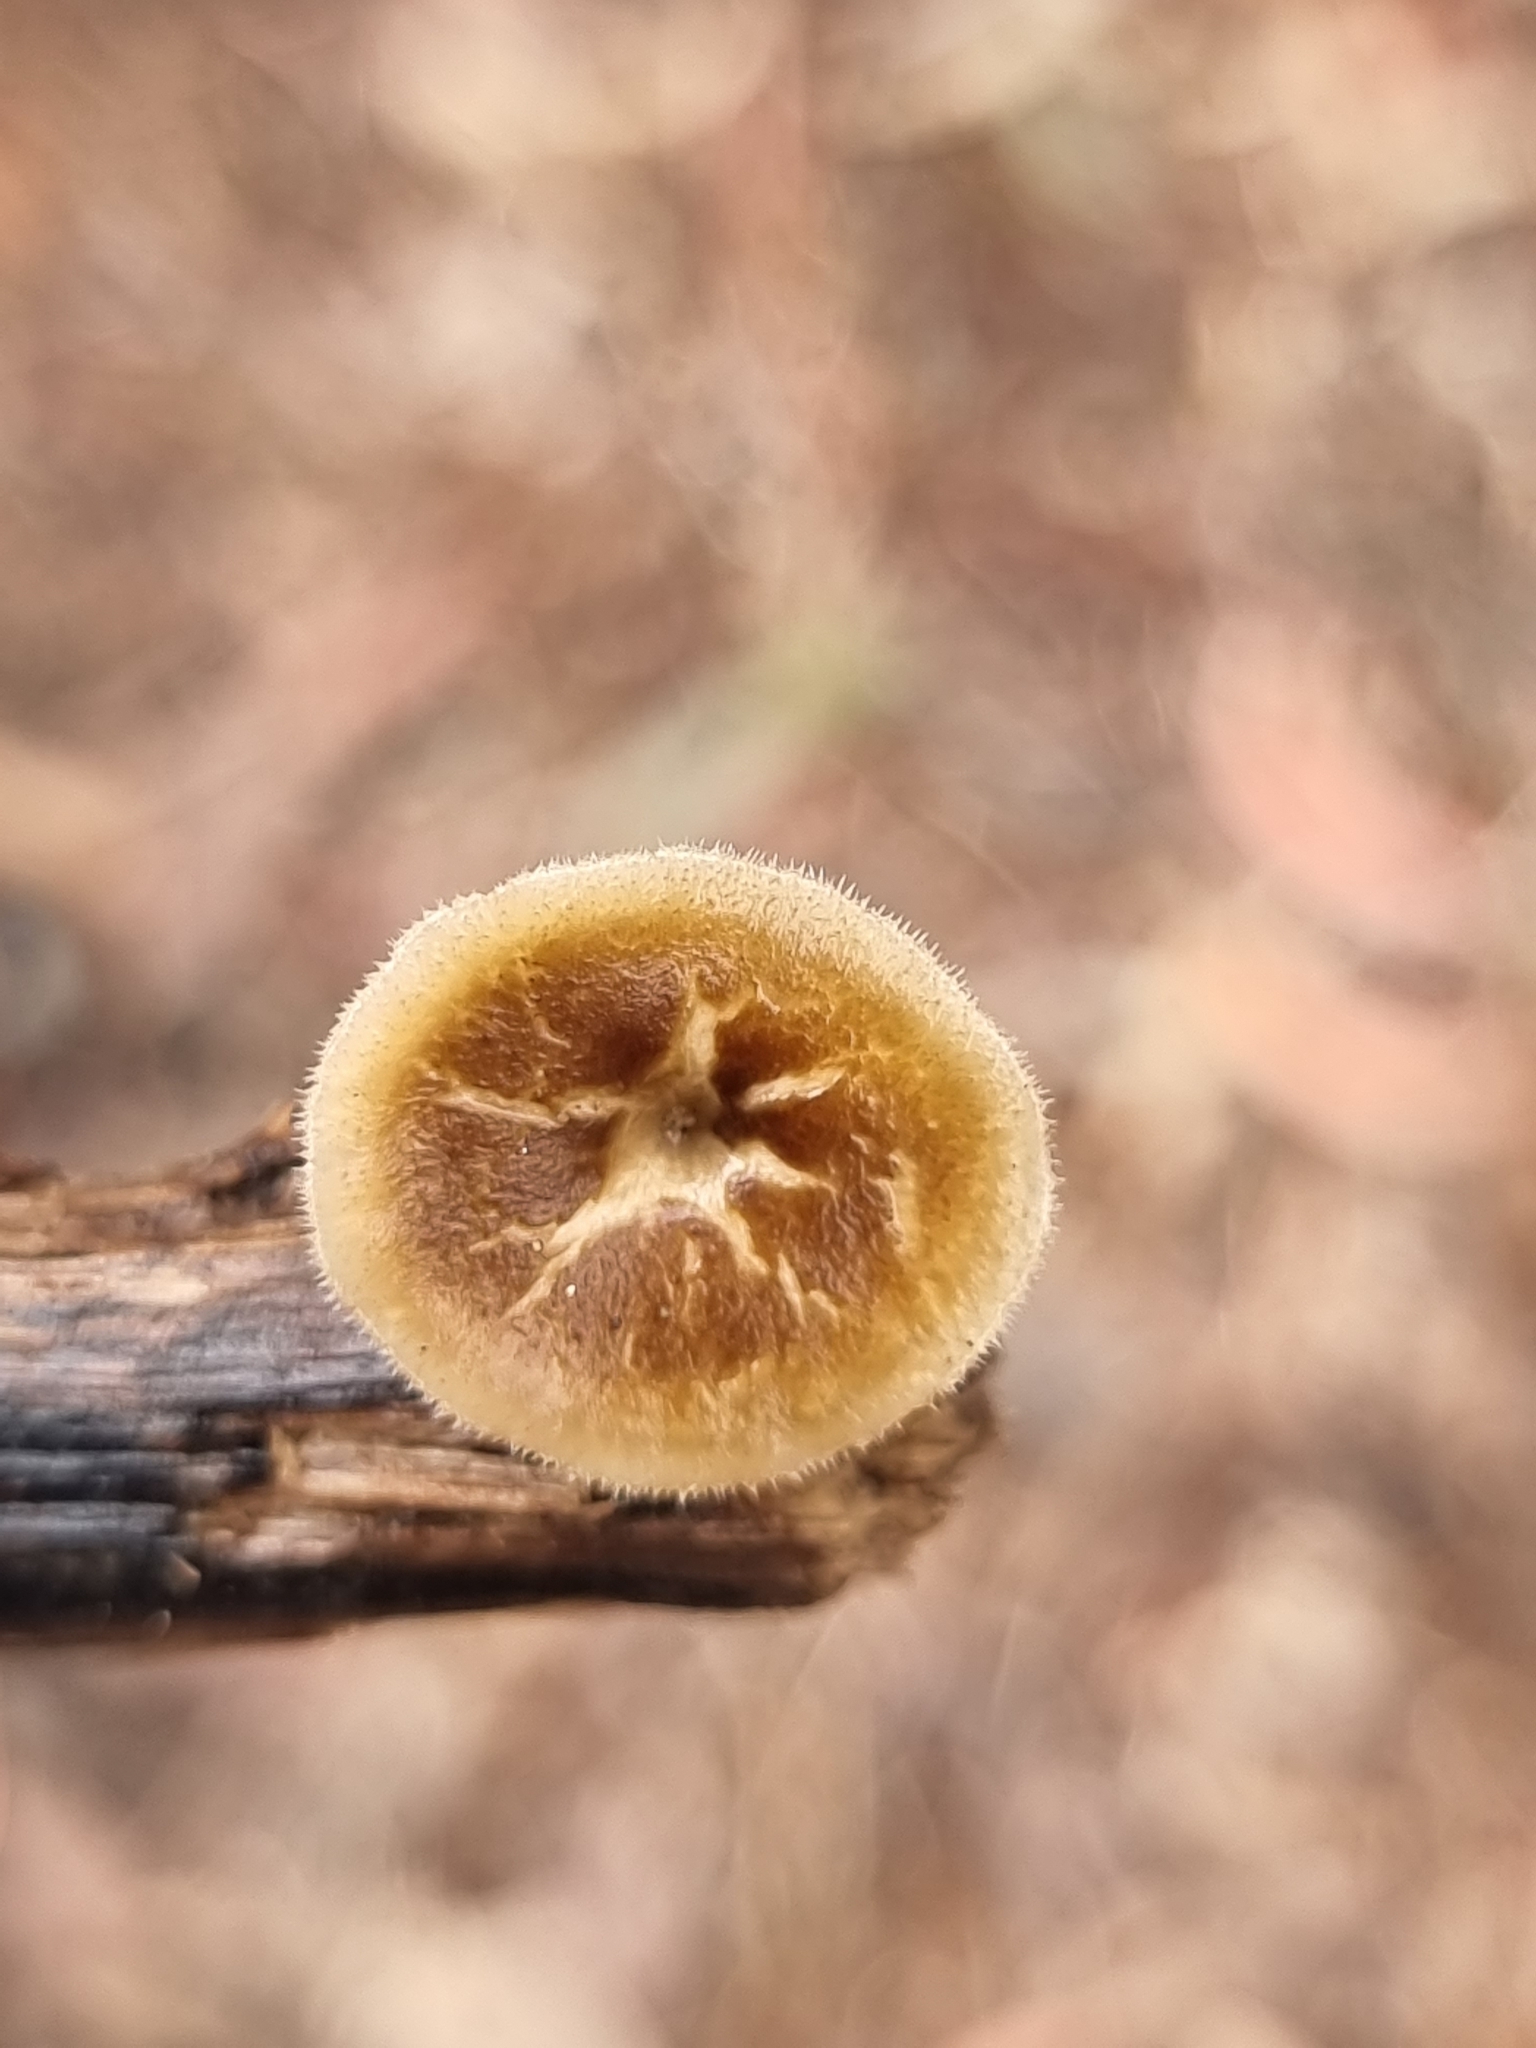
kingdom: Fungi
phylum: Basidiomycota
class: Agaricomycetes
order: Polyporales
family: Polyporaceae
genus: Lentinus
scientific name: Lentinus arcularius
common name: Spring polypore
